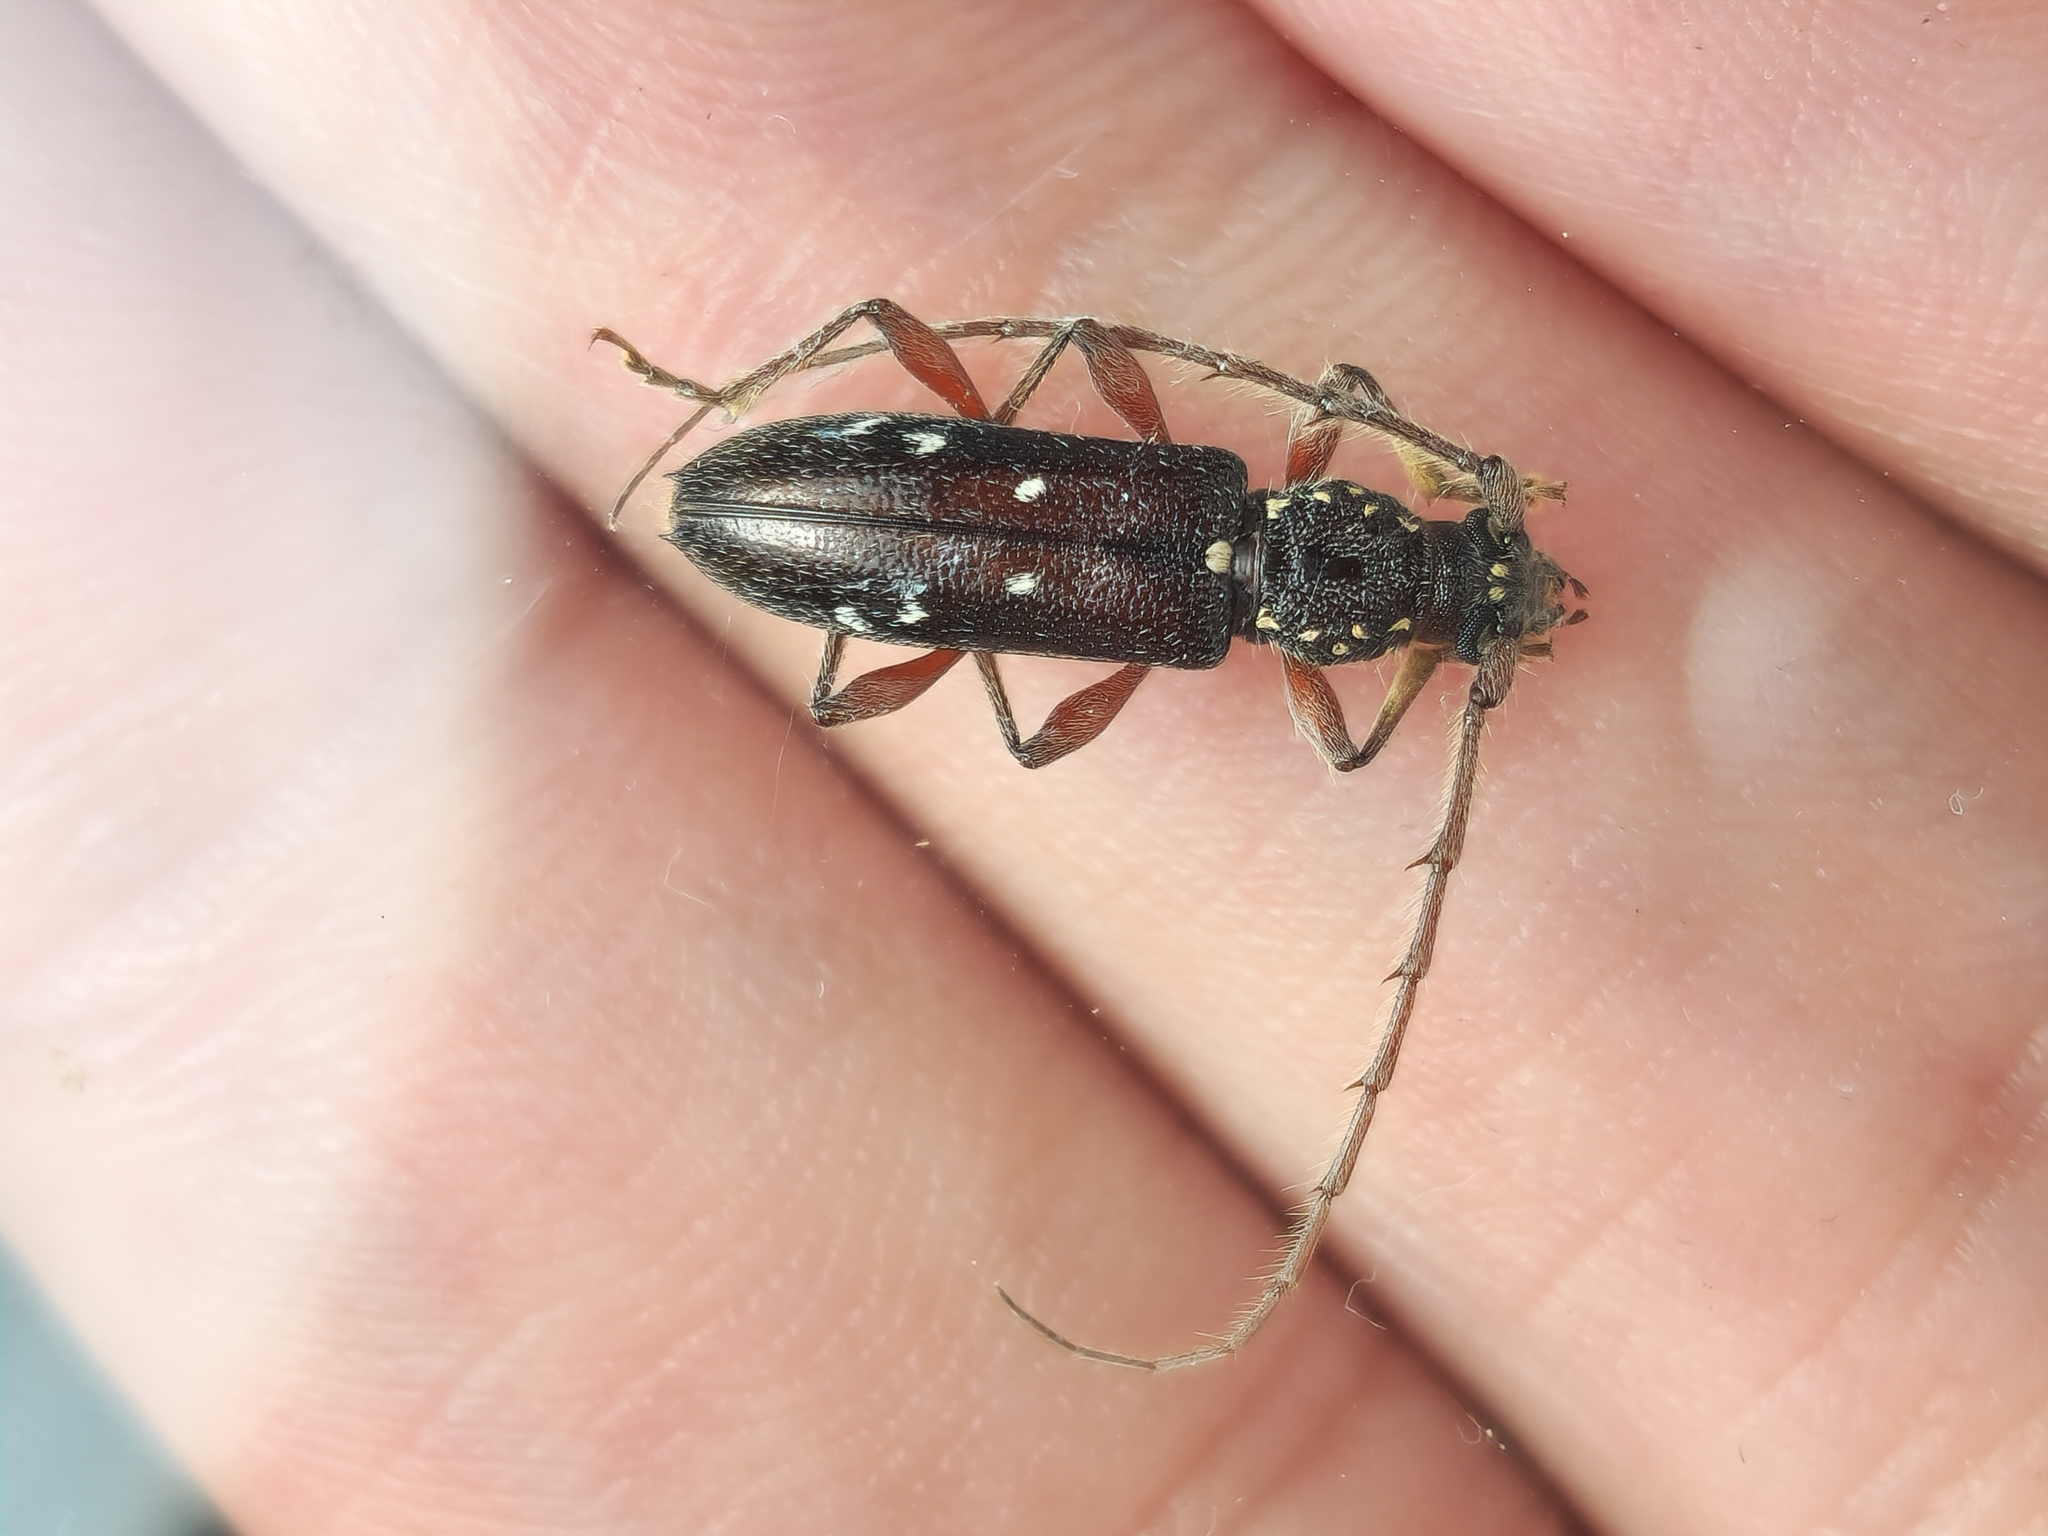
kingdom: Animalia
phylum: Arthropoda
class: Insecta
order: Coleoptera
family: Cerambycidae
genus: Ambonus
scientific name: Ambonus interrogationis
